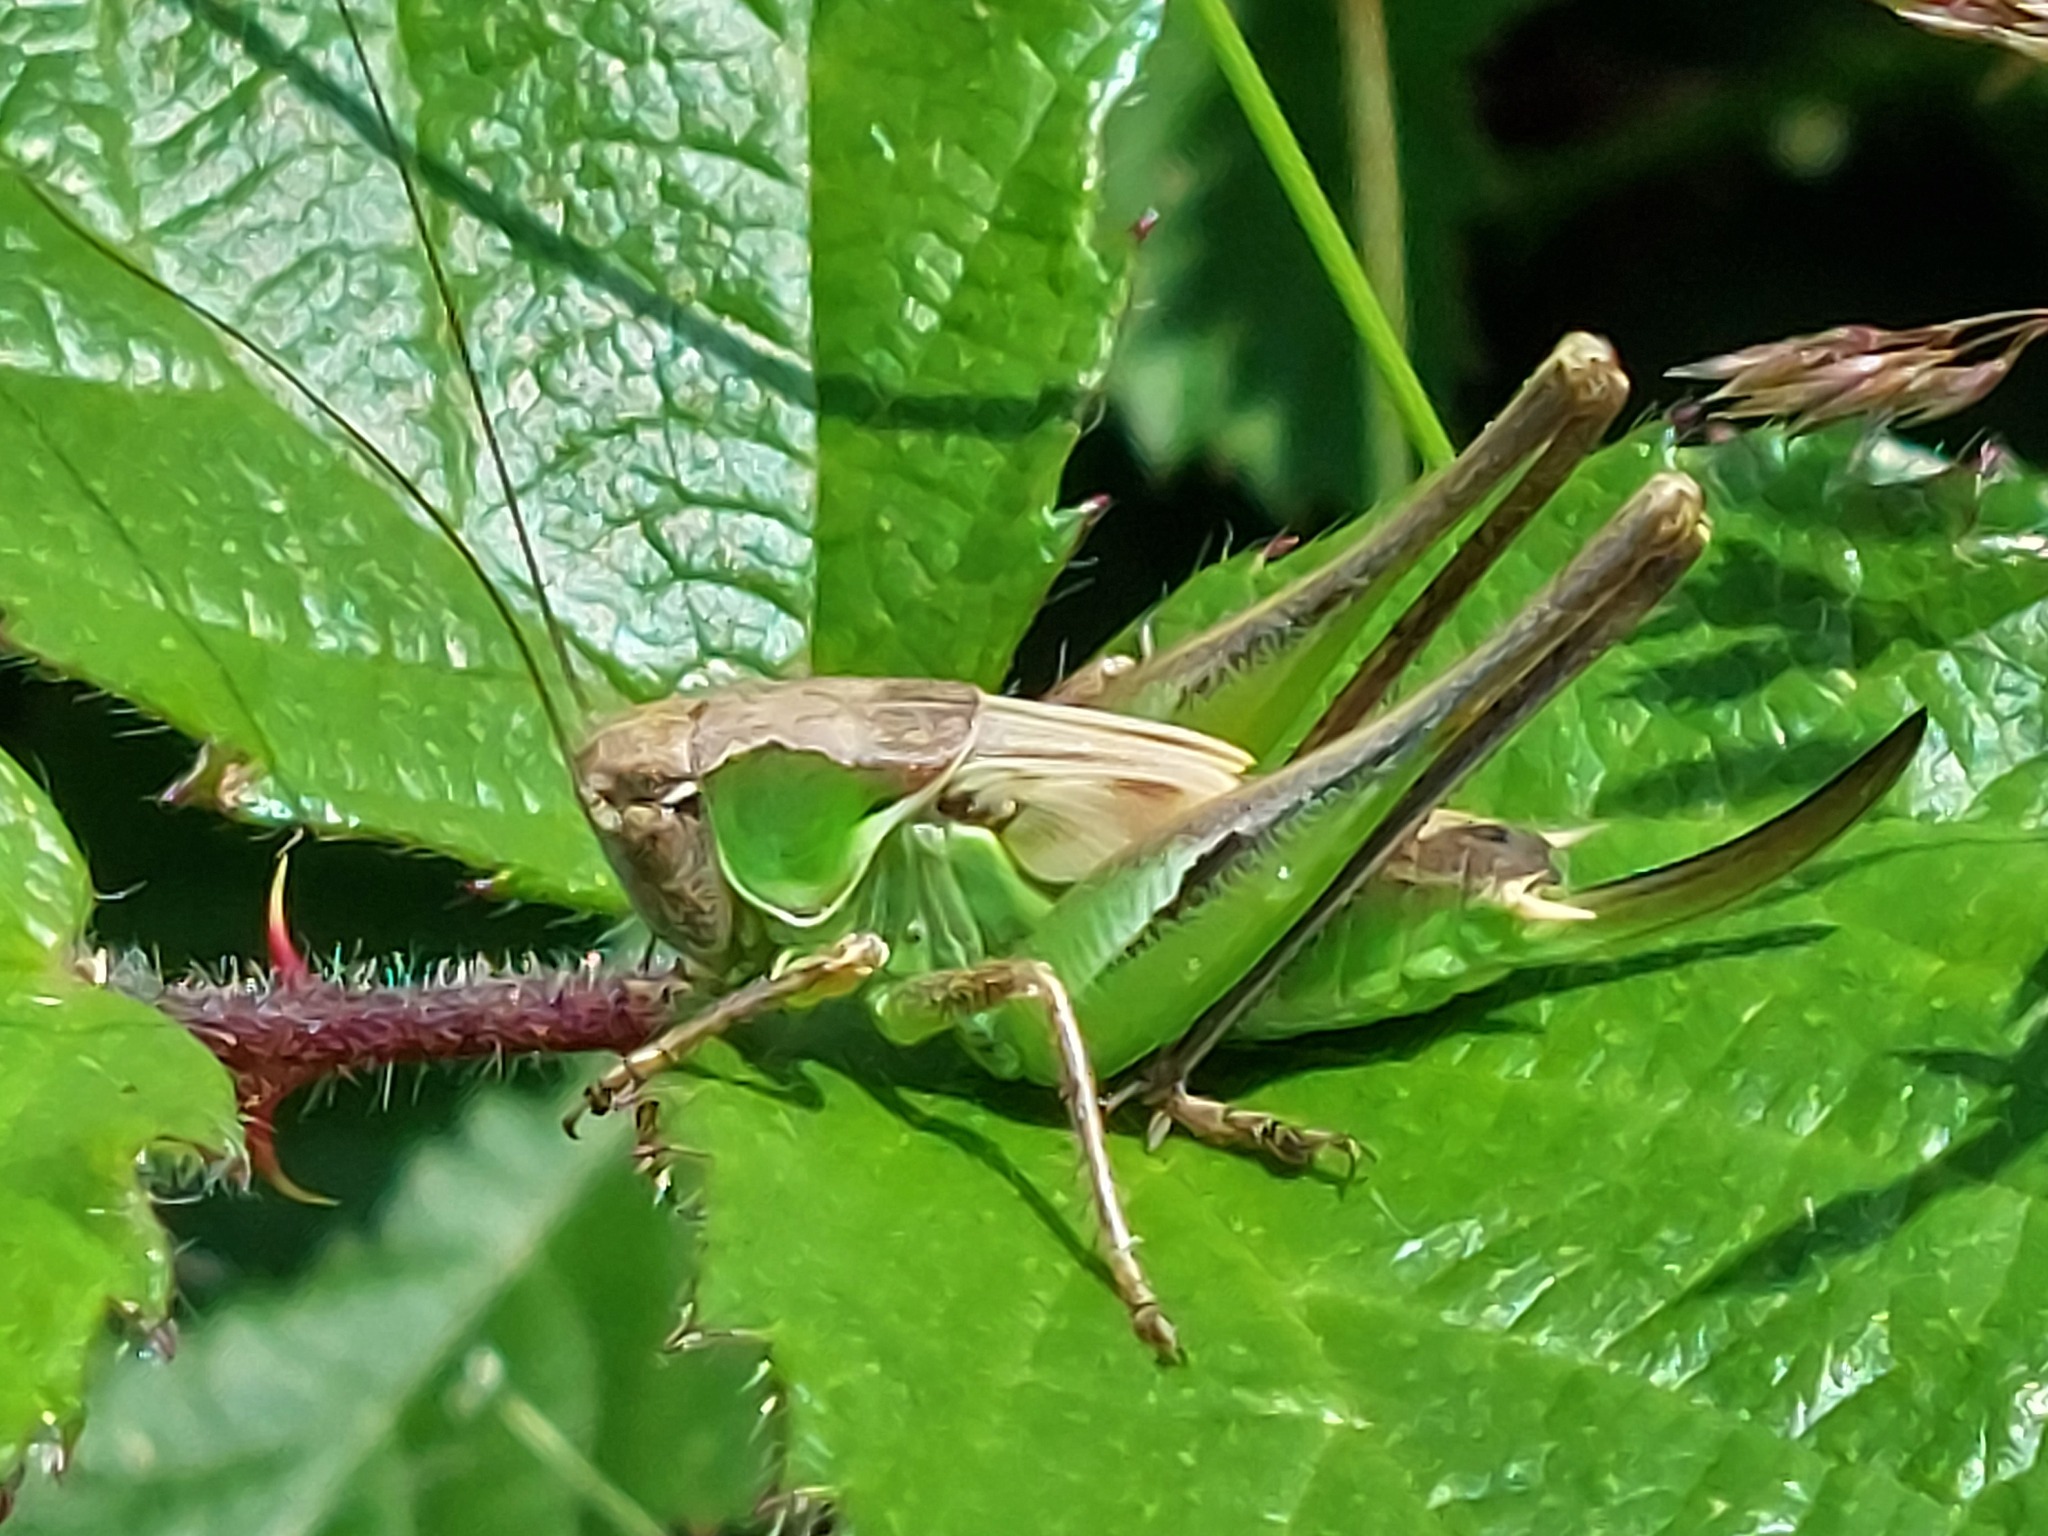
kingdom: Animalia
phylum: Arthropoda
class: Insecta
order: Orthoptera
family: Tettigoniidae
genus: Platycleis
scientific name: Platycleis albopunctata
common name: Grey bush-cricket
